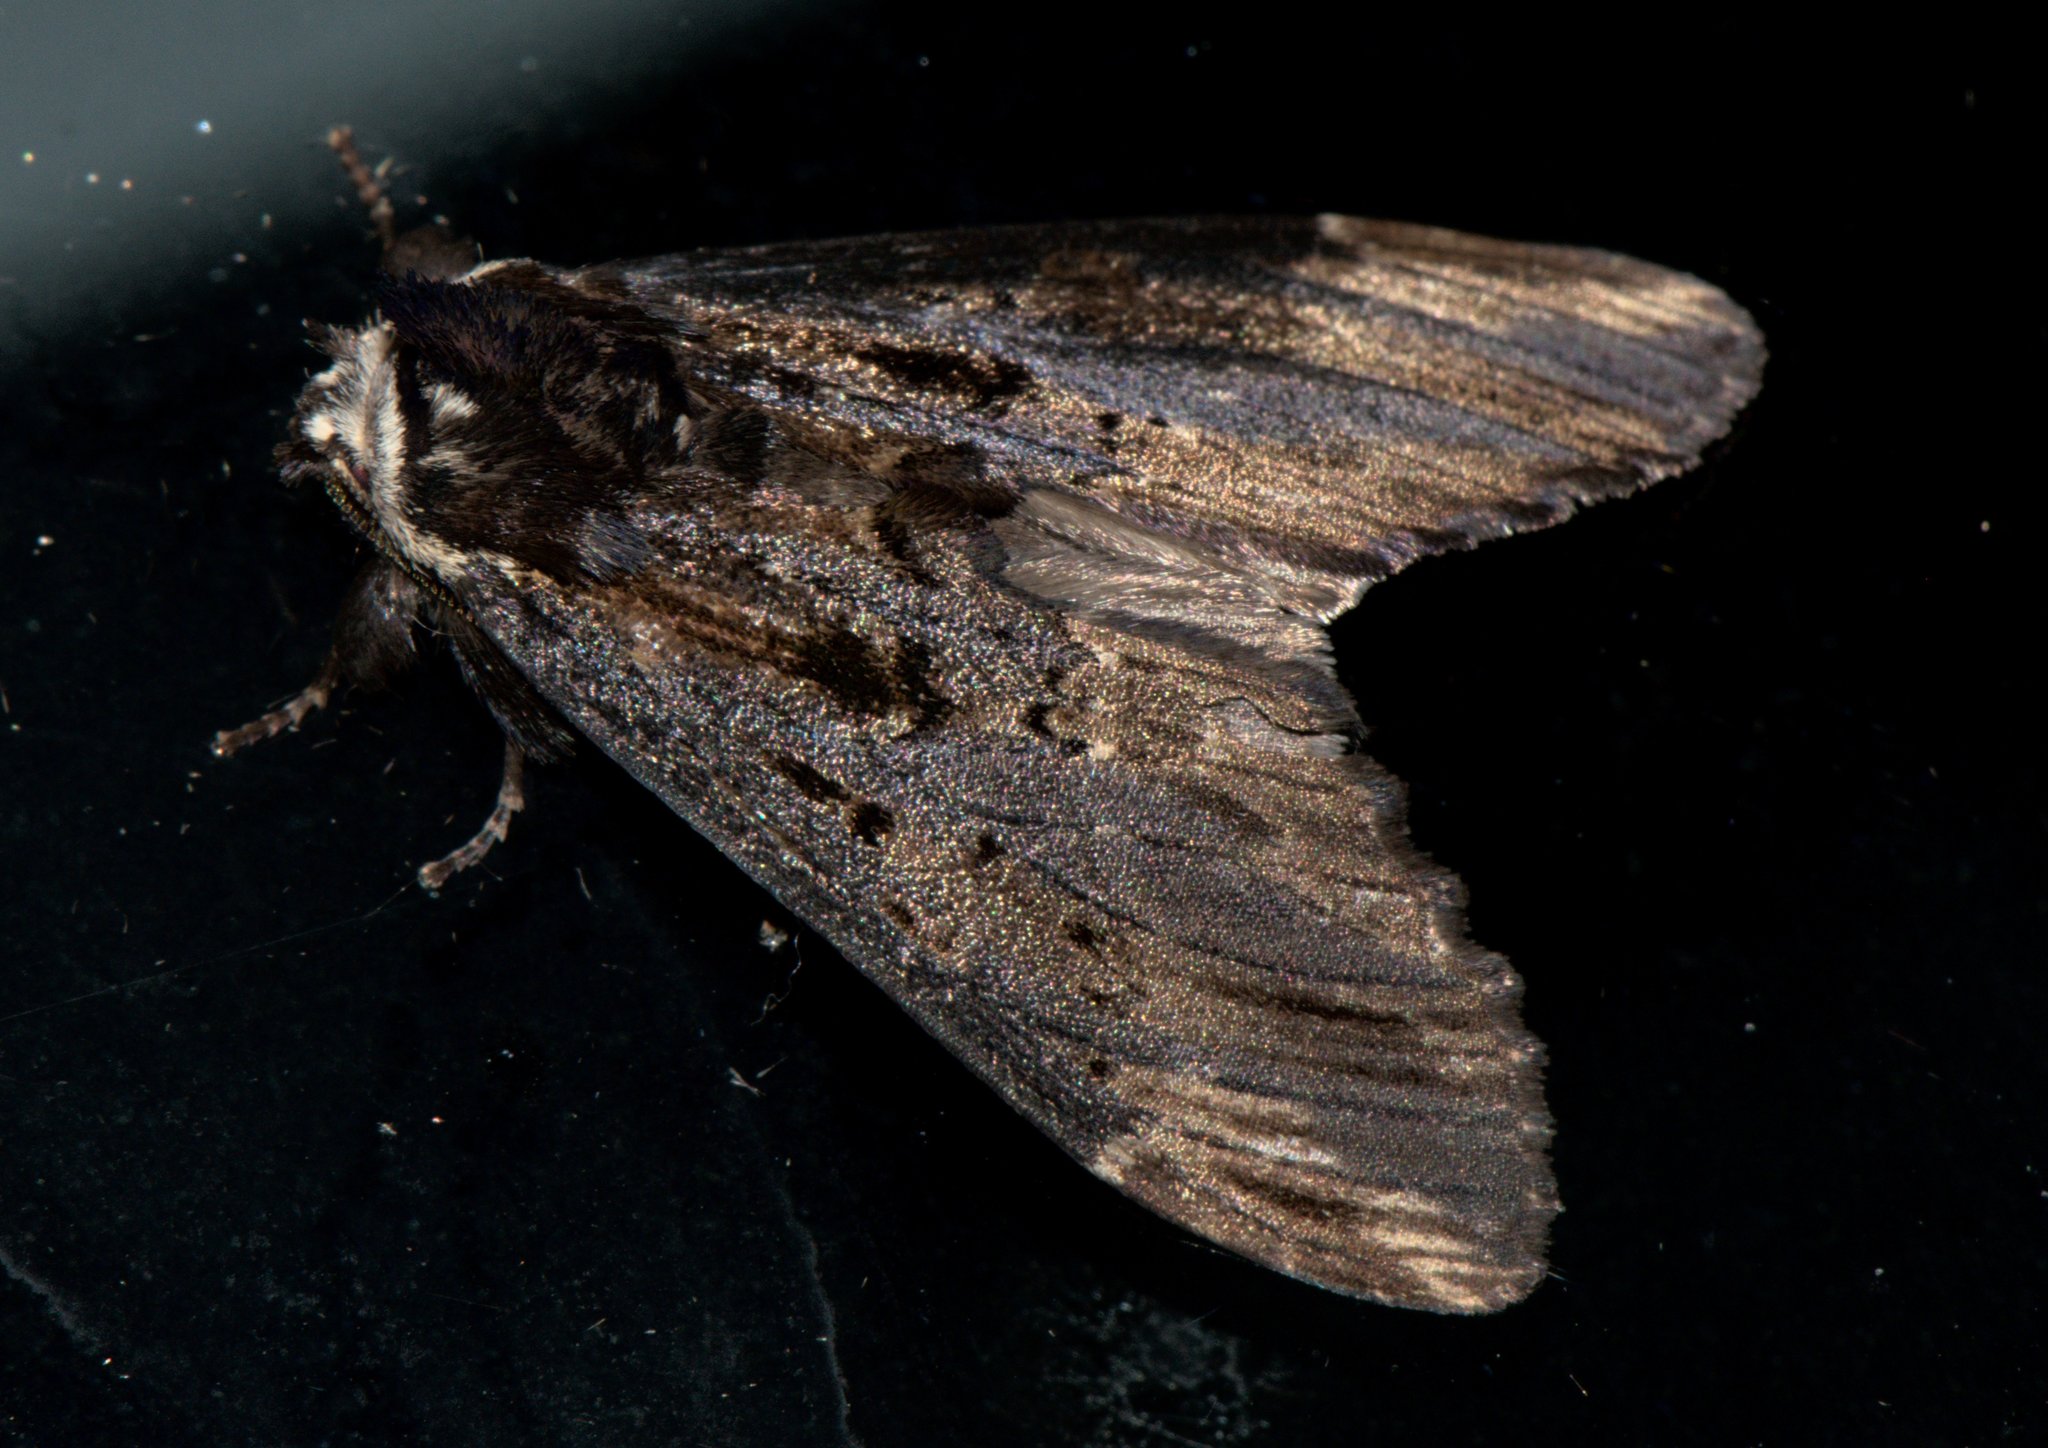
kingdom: Animalia
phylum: Arthropoda
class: Insecta
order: Lepidoptera
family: Notodontidae
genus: Allodonta
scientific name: Allodonta collaris
